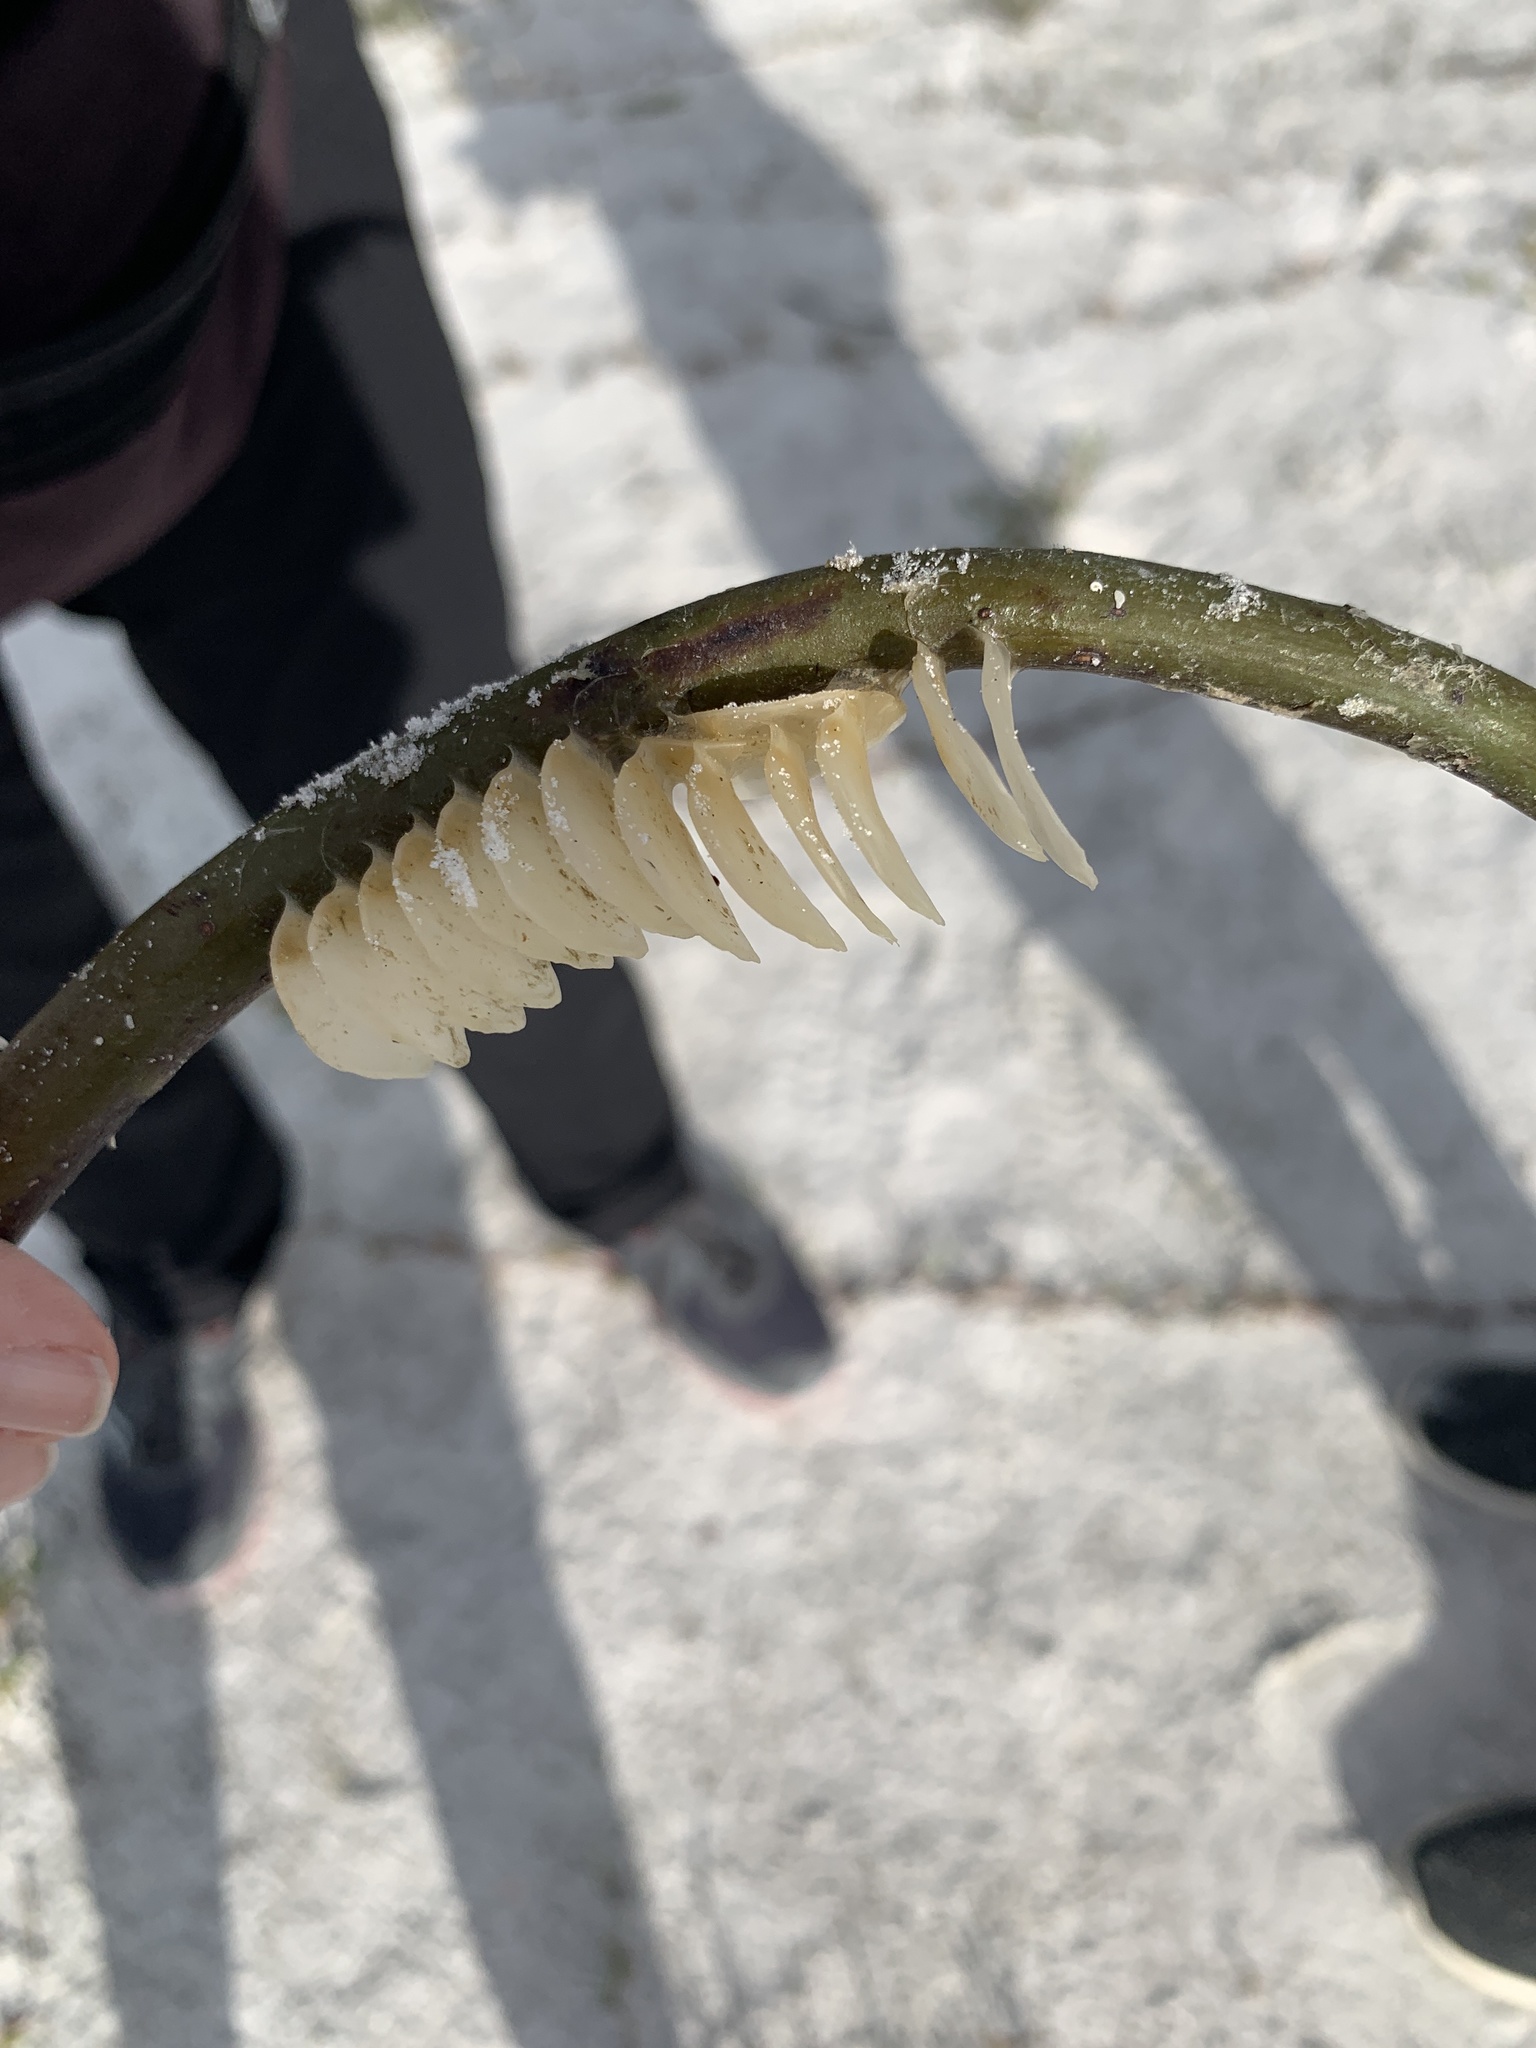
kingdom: Animalia
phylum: Mollusca
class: Gastropoda
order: Neogastropoda
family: Melongenidae
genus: Melongena
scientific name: Melongena corona
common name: American crown conch
